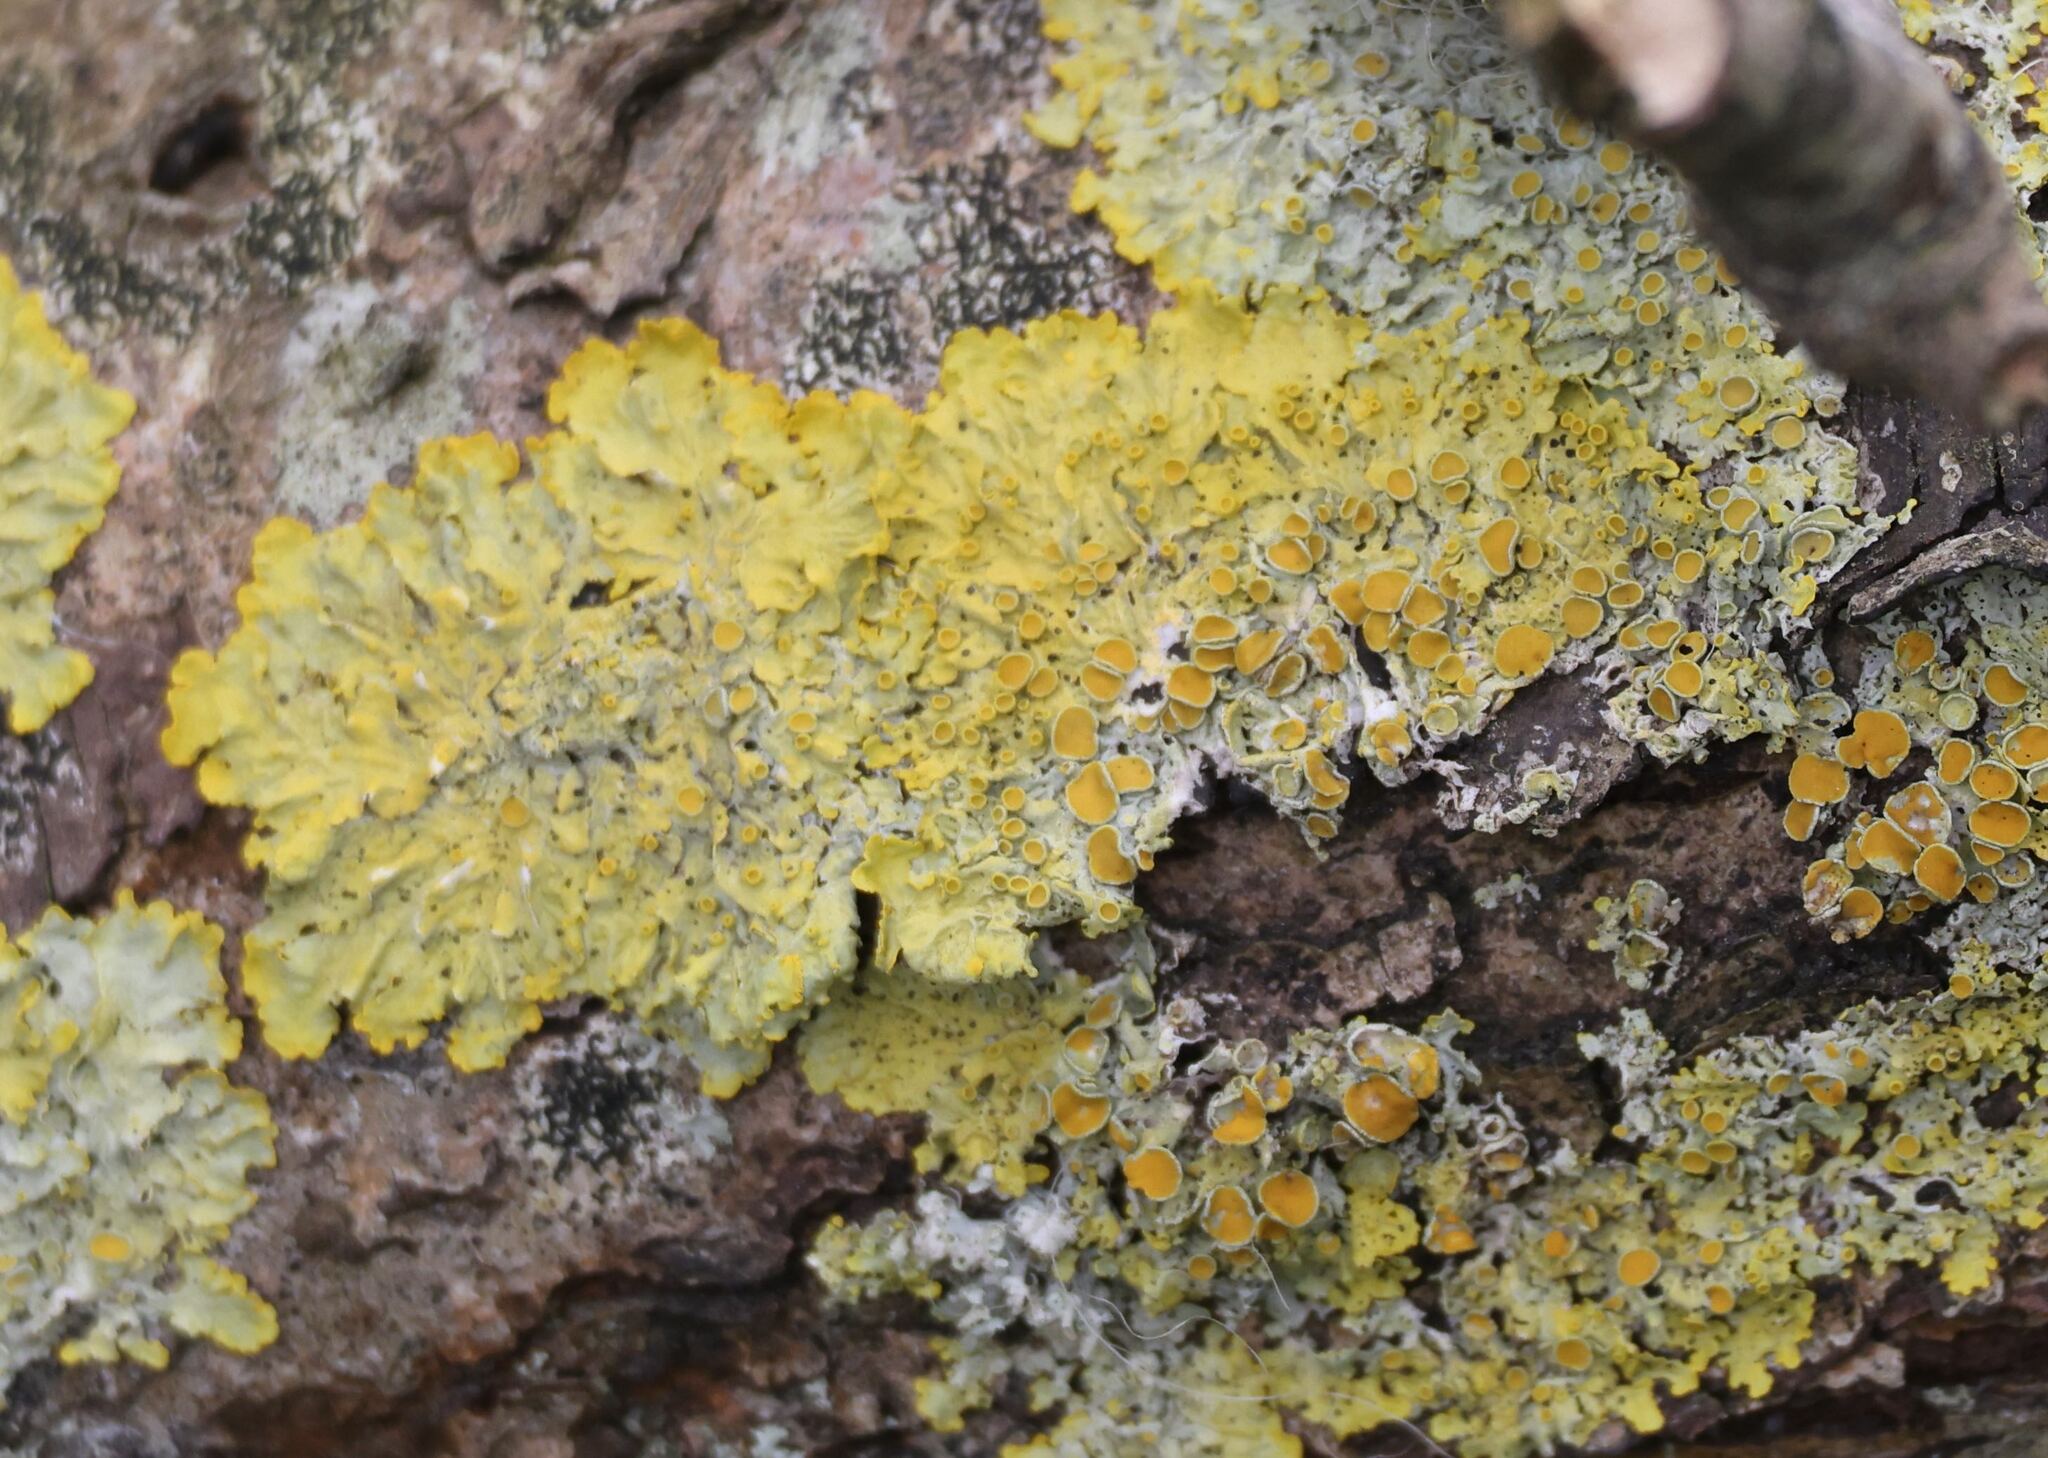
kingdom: Fungi
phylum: Ascomycota
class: Lecanoromycetes
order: Teloschistales
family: Teloschistaceae
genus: Xanthoria
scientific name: Xanthoria parietina
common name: Common orange lichen
